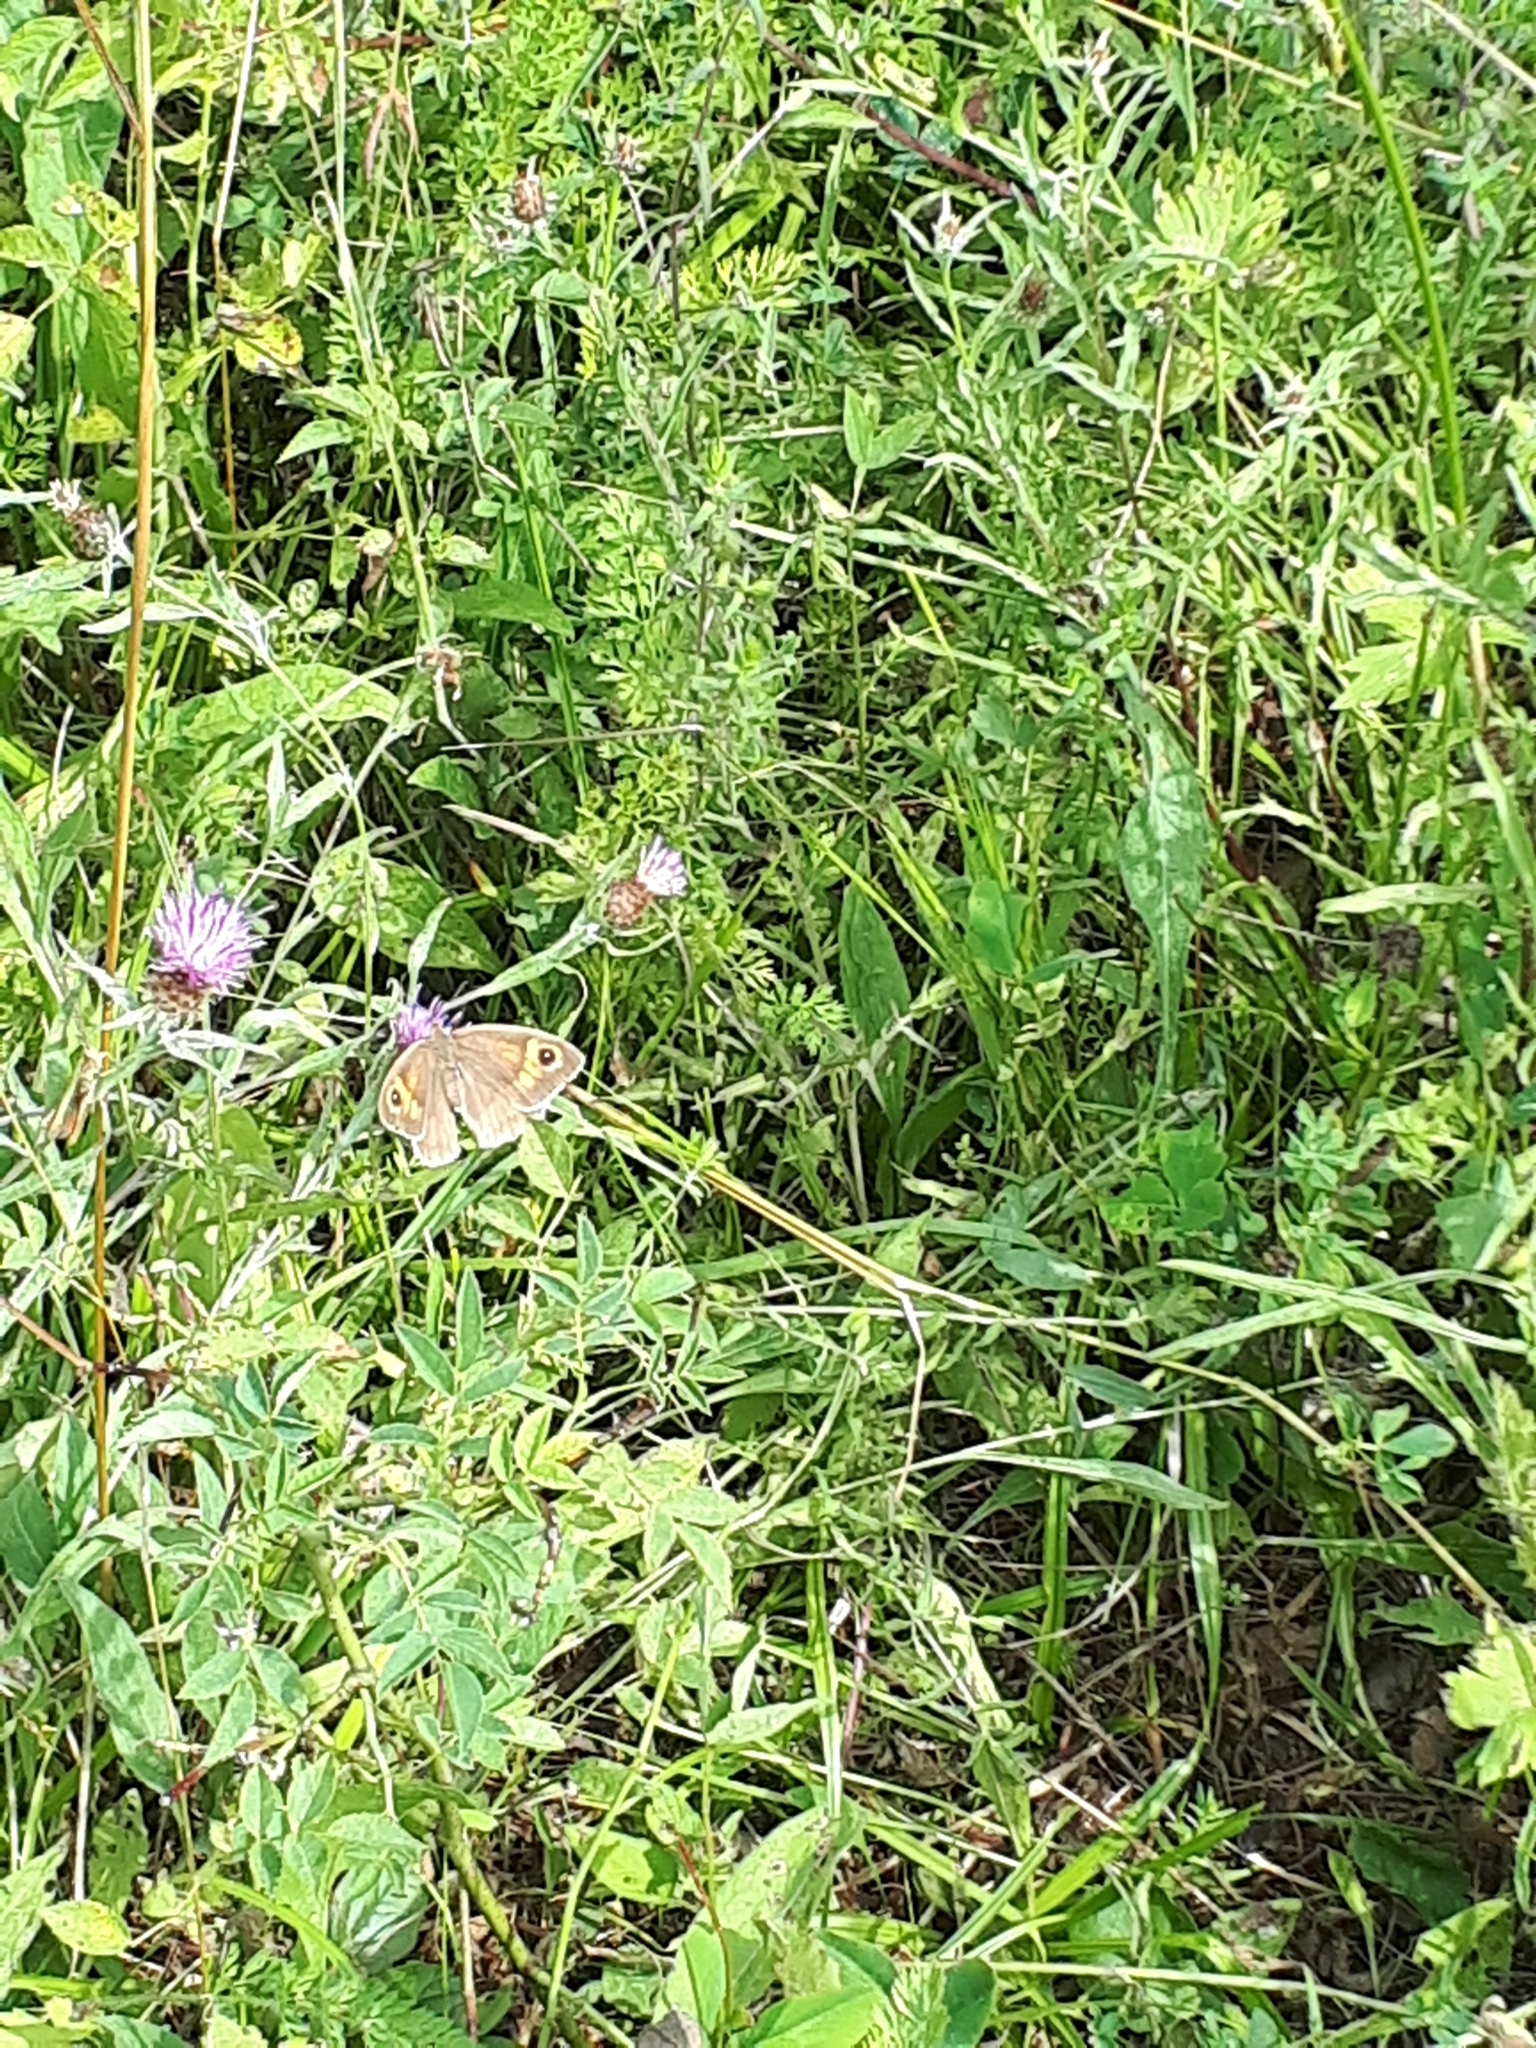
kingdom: Animalia
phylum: Arthropoda
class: Insecta
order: Lepidoptera
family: Nymphalidae
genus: Maniola
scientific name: Maniola jurtina
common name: Meadow brown
